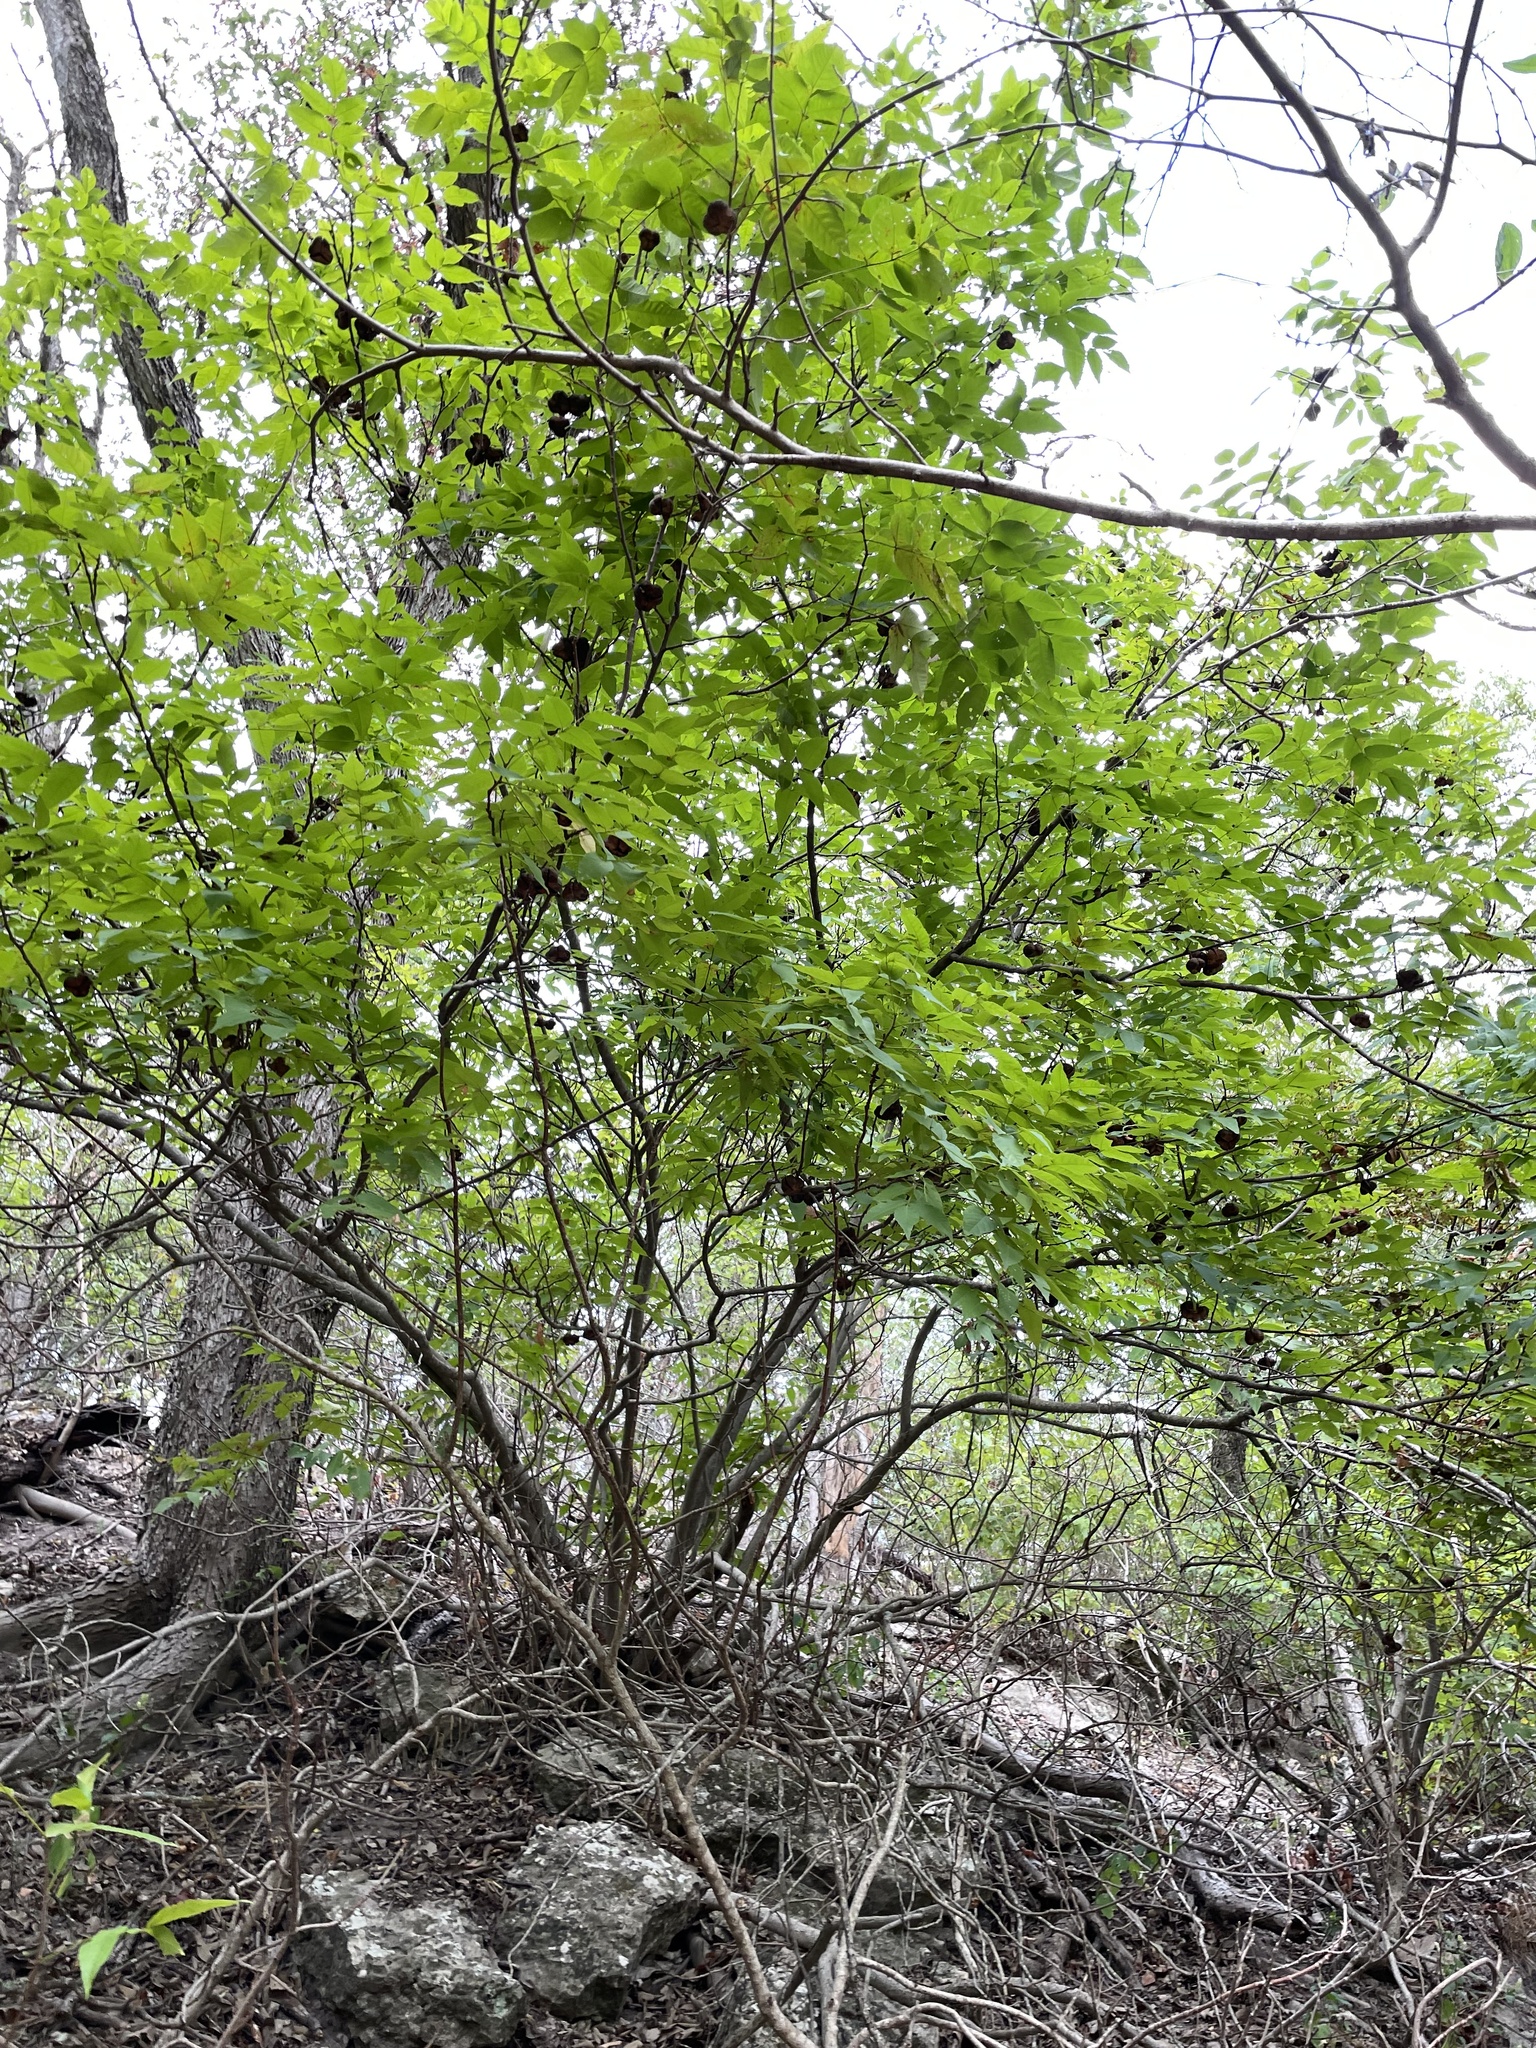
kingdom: Plantae
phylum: Tracheophyta
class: Magnoliopsida
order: Sapindales
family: Sapindaceae
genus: Ungnadia
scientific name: Ungnadia speciosa
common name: Texas-buckeye
